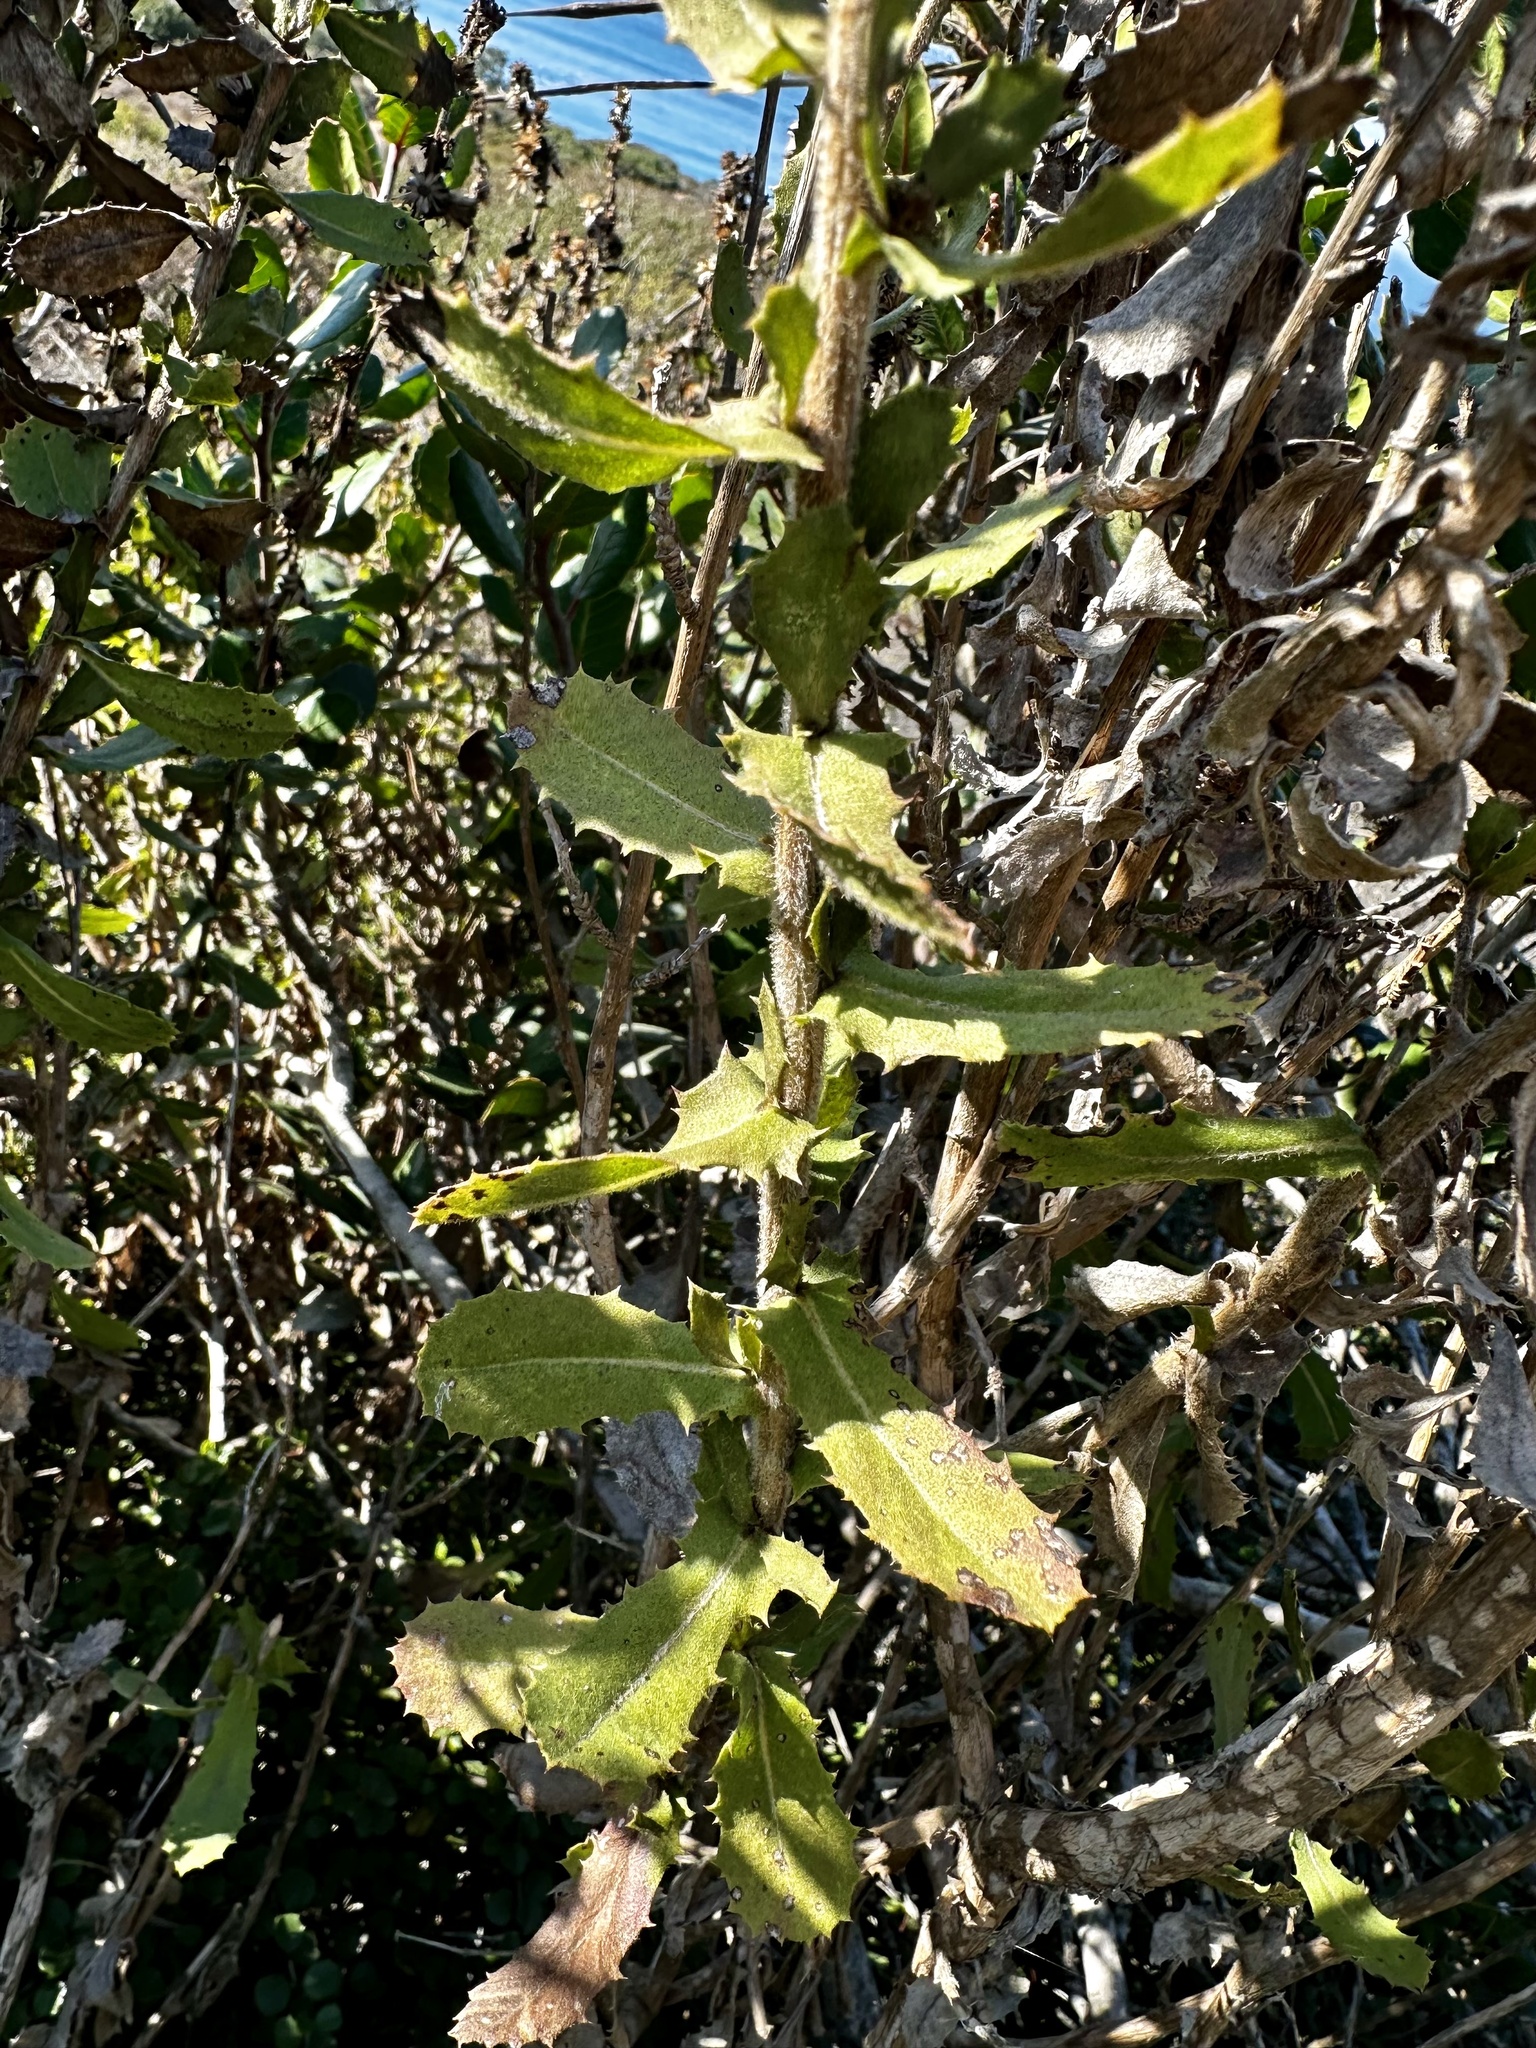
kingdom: Plantae
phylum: Tracheophyta
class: Magnoliopsida
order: Asterales
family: Asteraceae
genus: Hazardia
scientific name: Hazardia squarrosa
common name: Saw-tooth goldenbush
